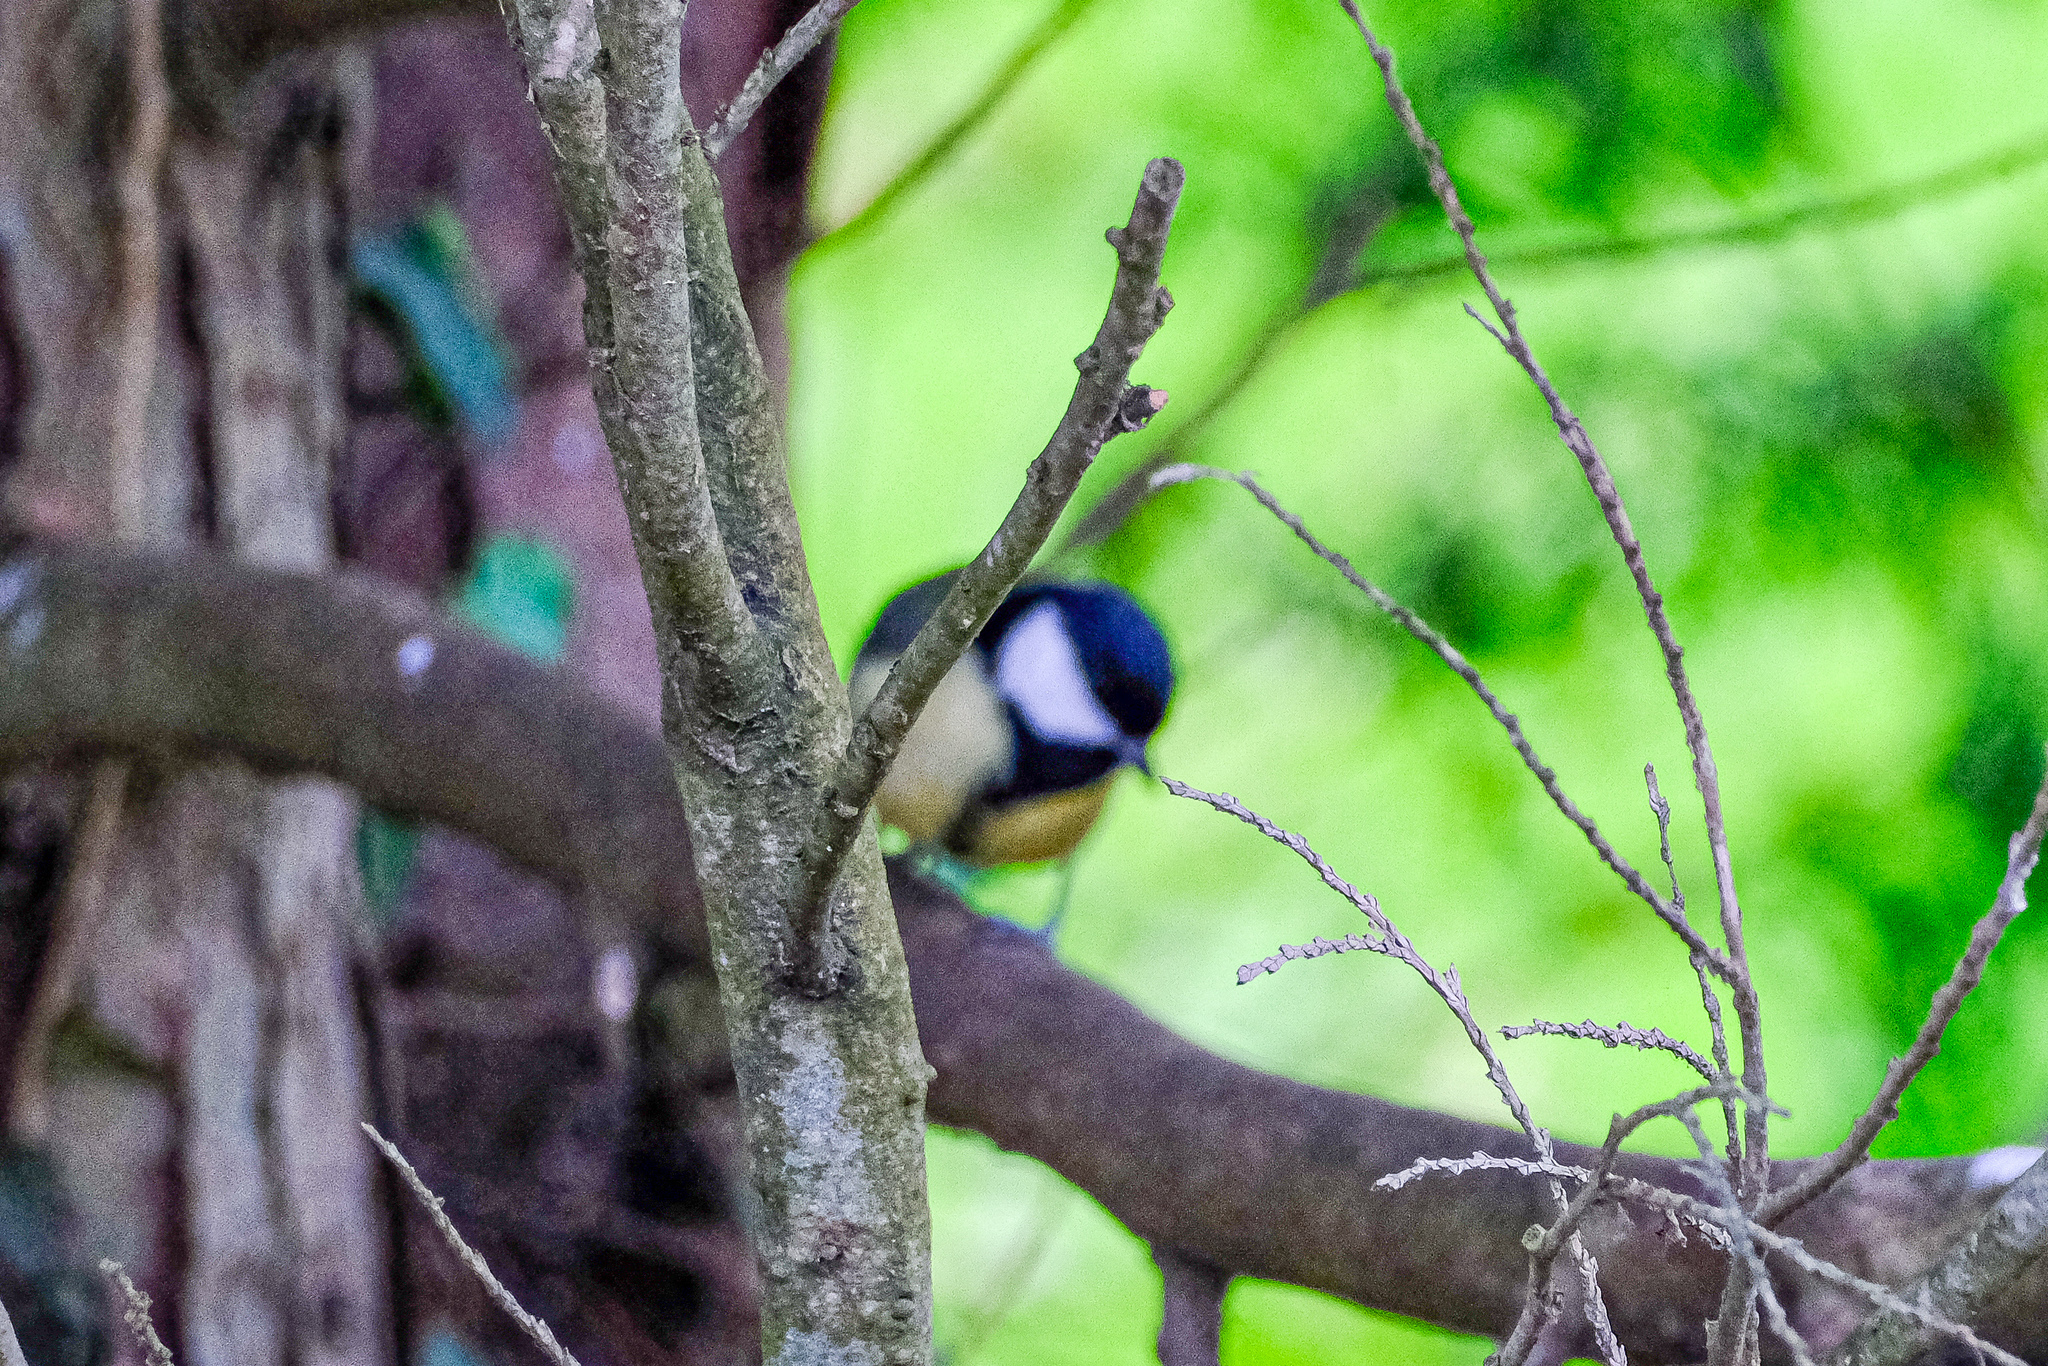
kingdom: Animalia
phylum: Chordata
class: Aves
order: Passeriformes
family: Paridae
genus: Parus
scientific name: Parus major
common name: Great tit
